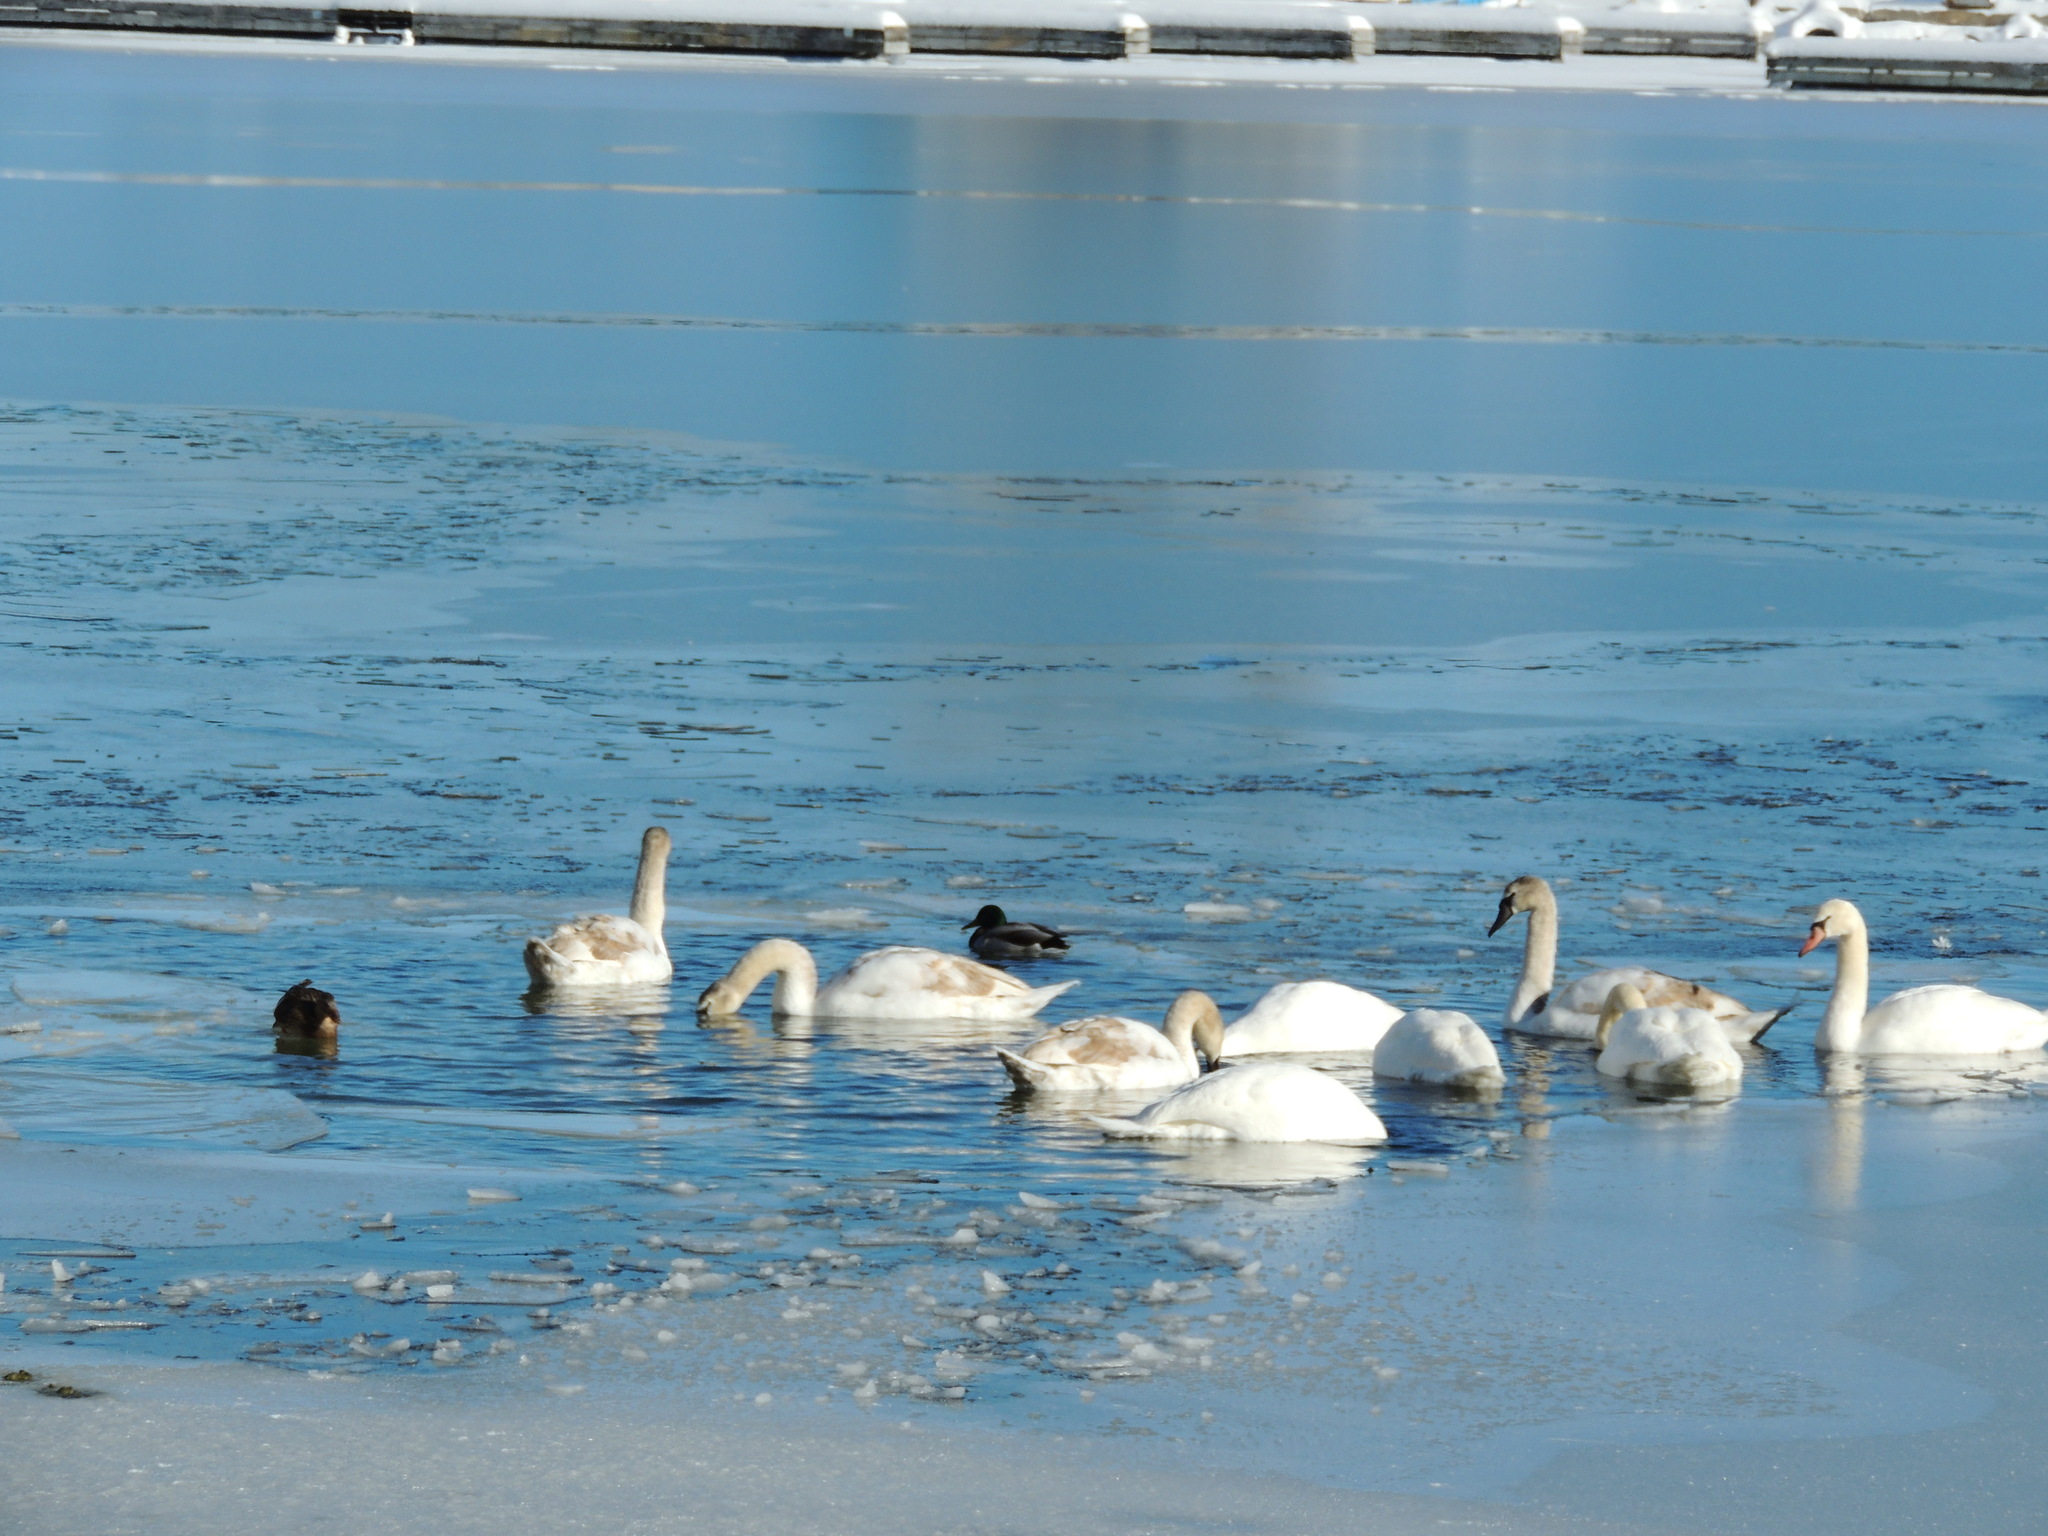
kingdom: Animalia
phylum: Chordata
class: Aves
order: Anseriformes
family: Anatidae
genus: Cygnus
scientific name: Cygnus buccinator
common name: Trumpeter swan
